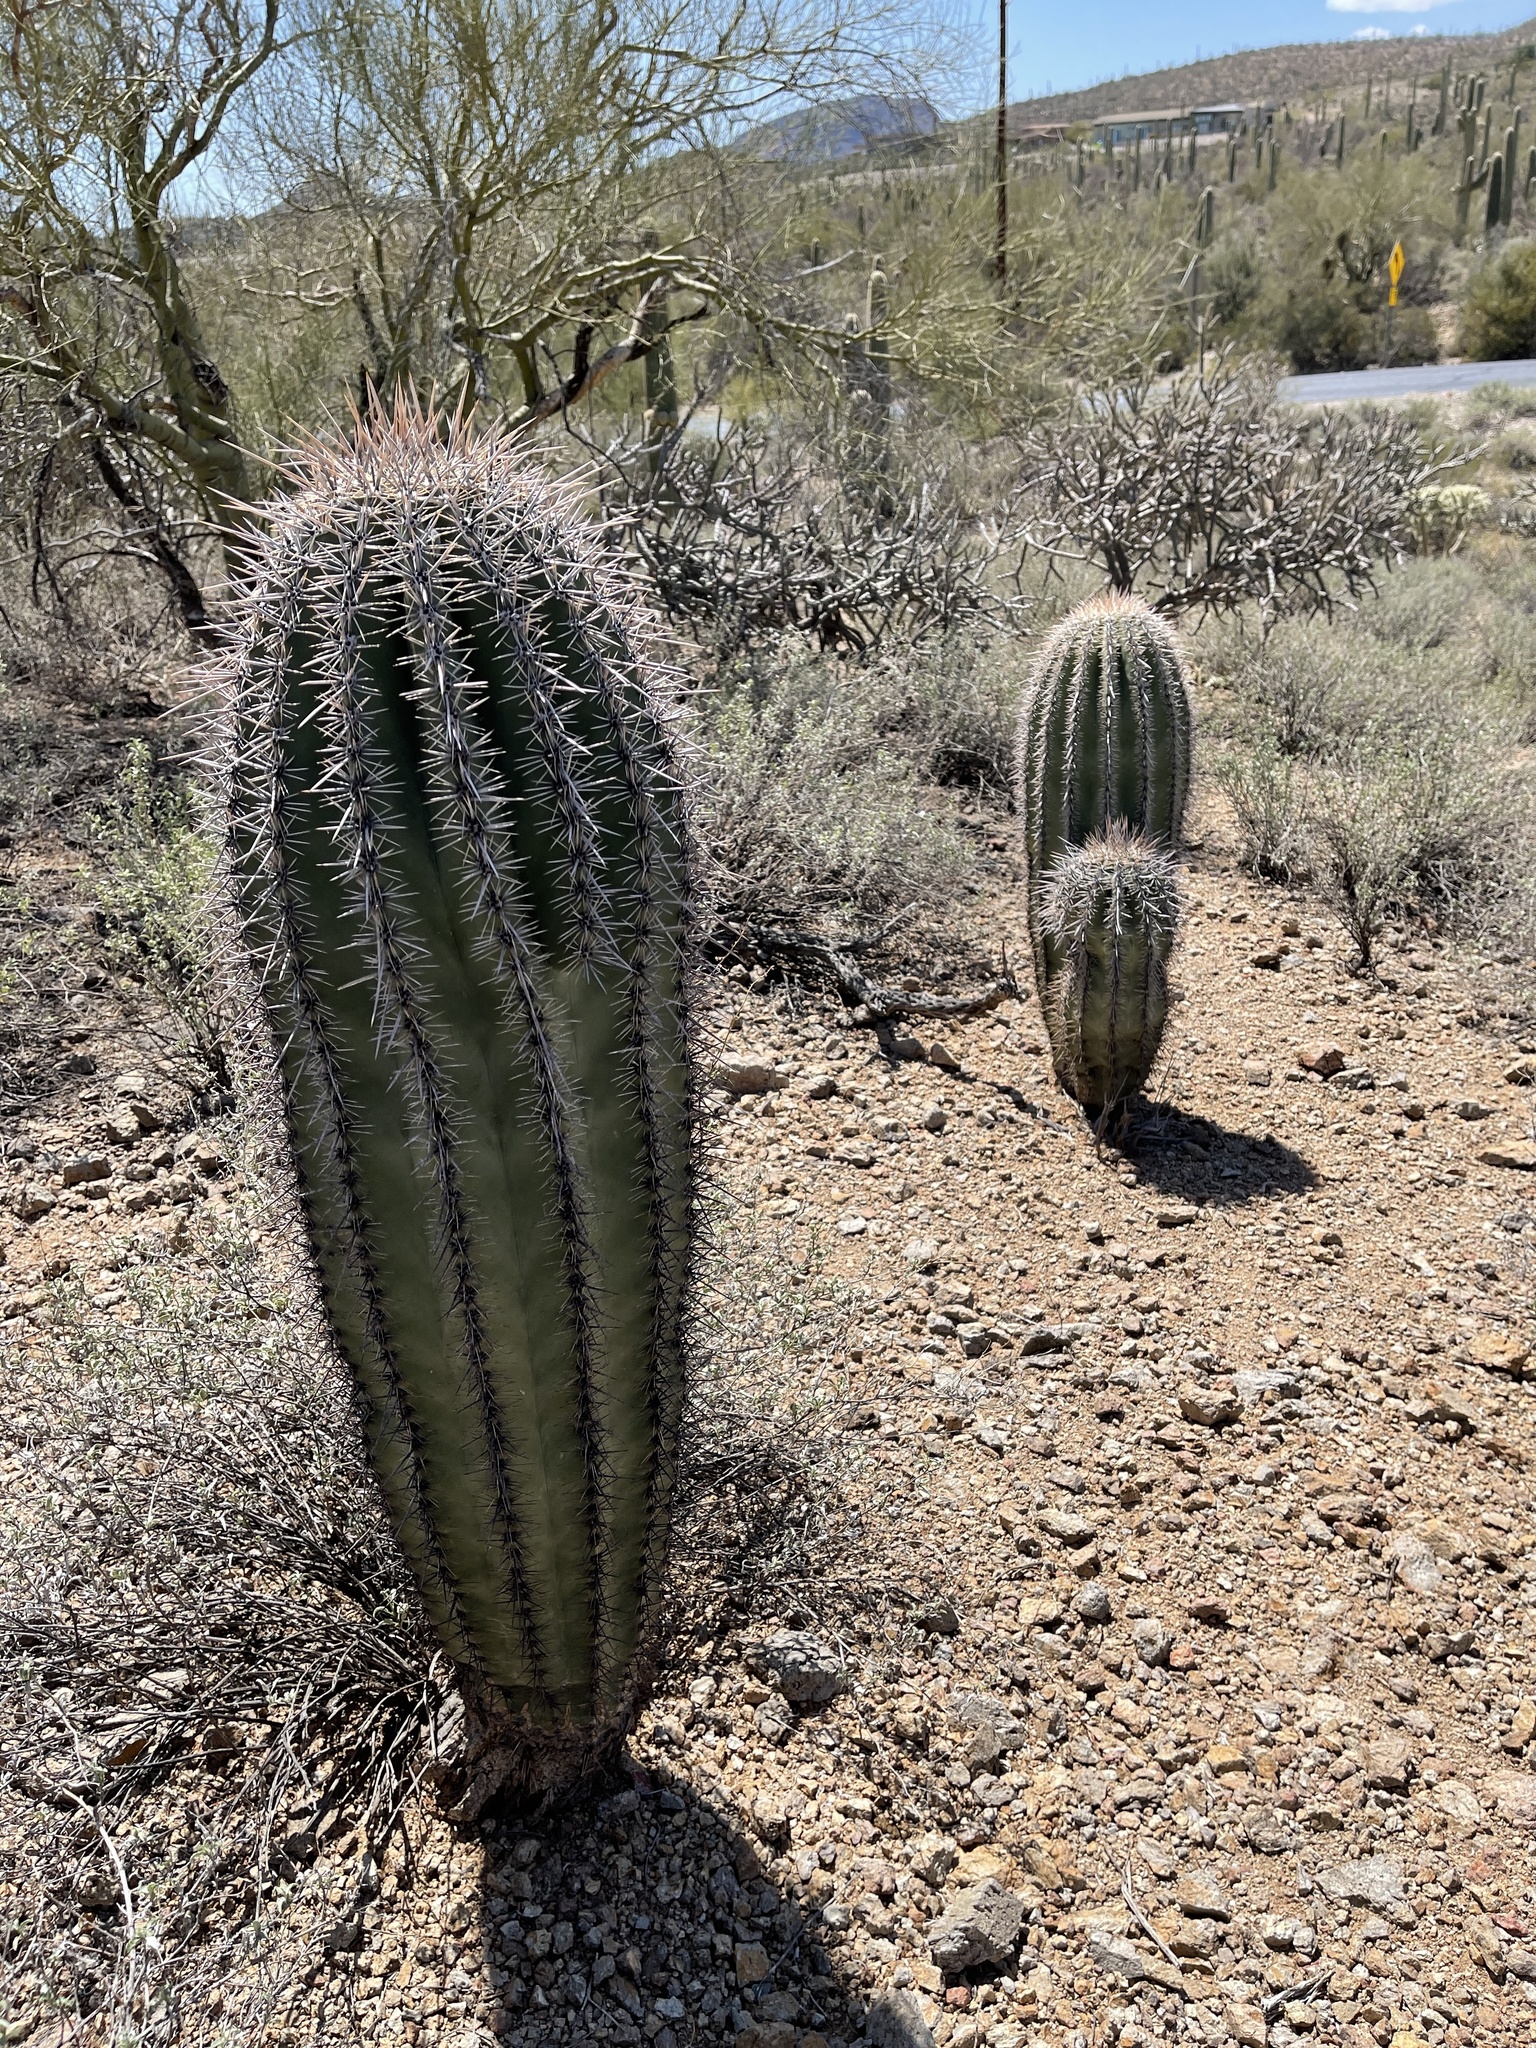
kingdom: Plantae
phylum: Tracheophyta
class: Magnoliopsida
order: Caryophyllales
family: Cactaceae
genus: Carnegiea
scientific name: Carnegiea gigantea
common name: Saguaro
